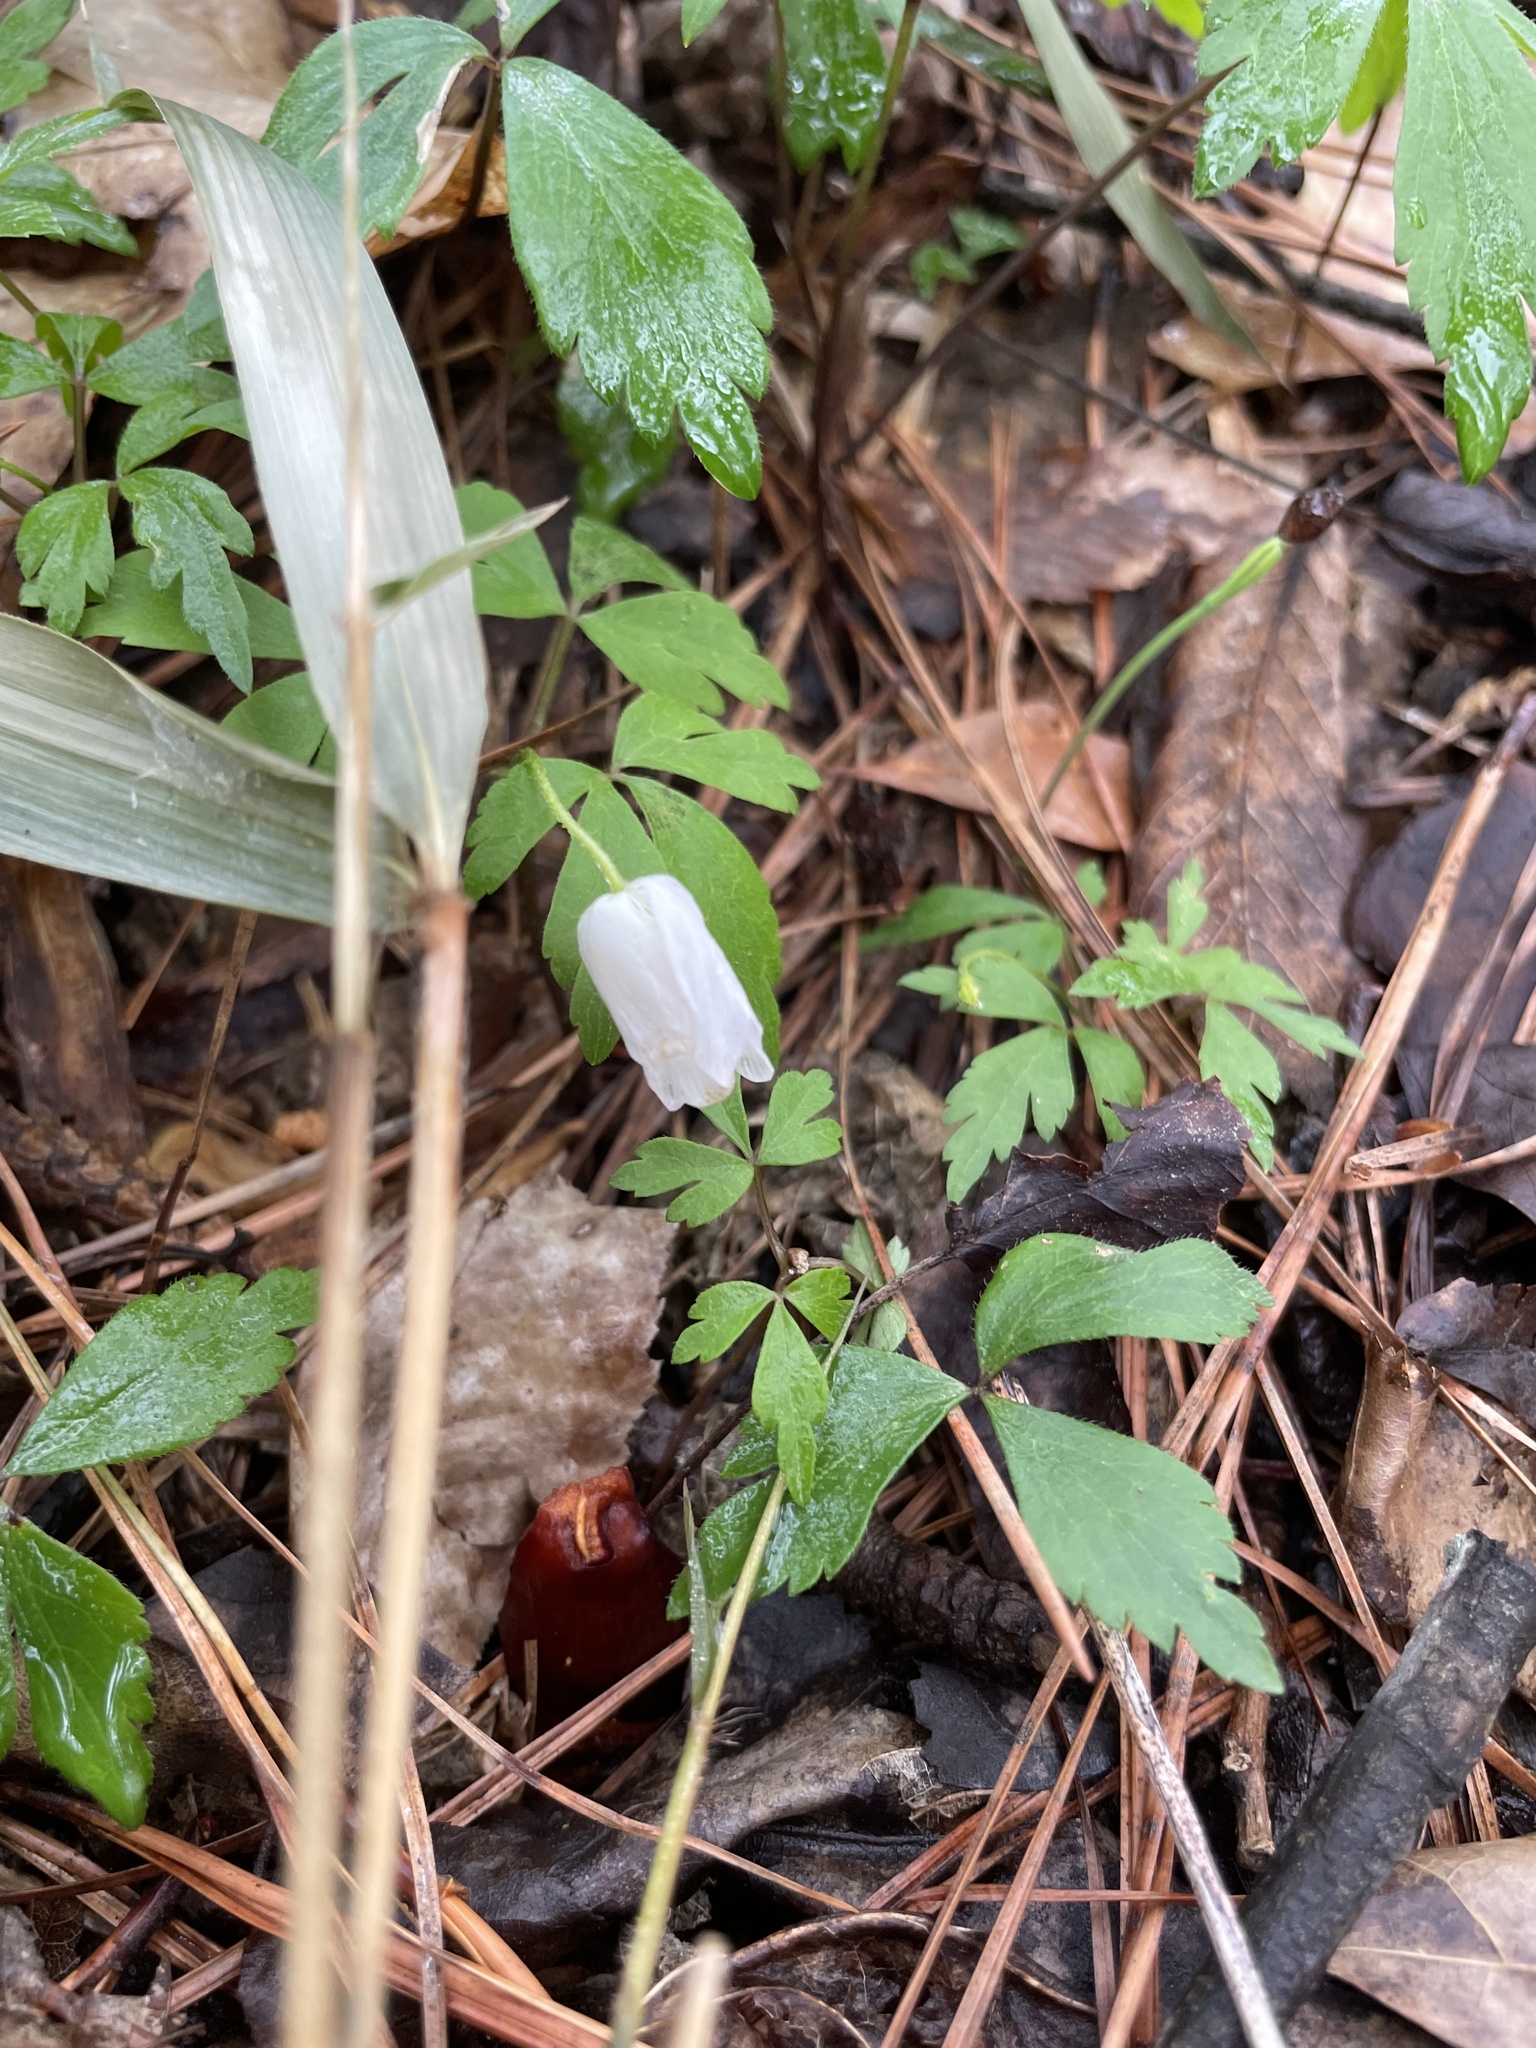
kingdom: Plantae
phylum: Tracheophyta
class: Magnoliopsida
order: Ranunculales
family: Ranunculaceae
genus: Anemone
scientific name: Anemone quinquefolia
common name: Wood anemone
